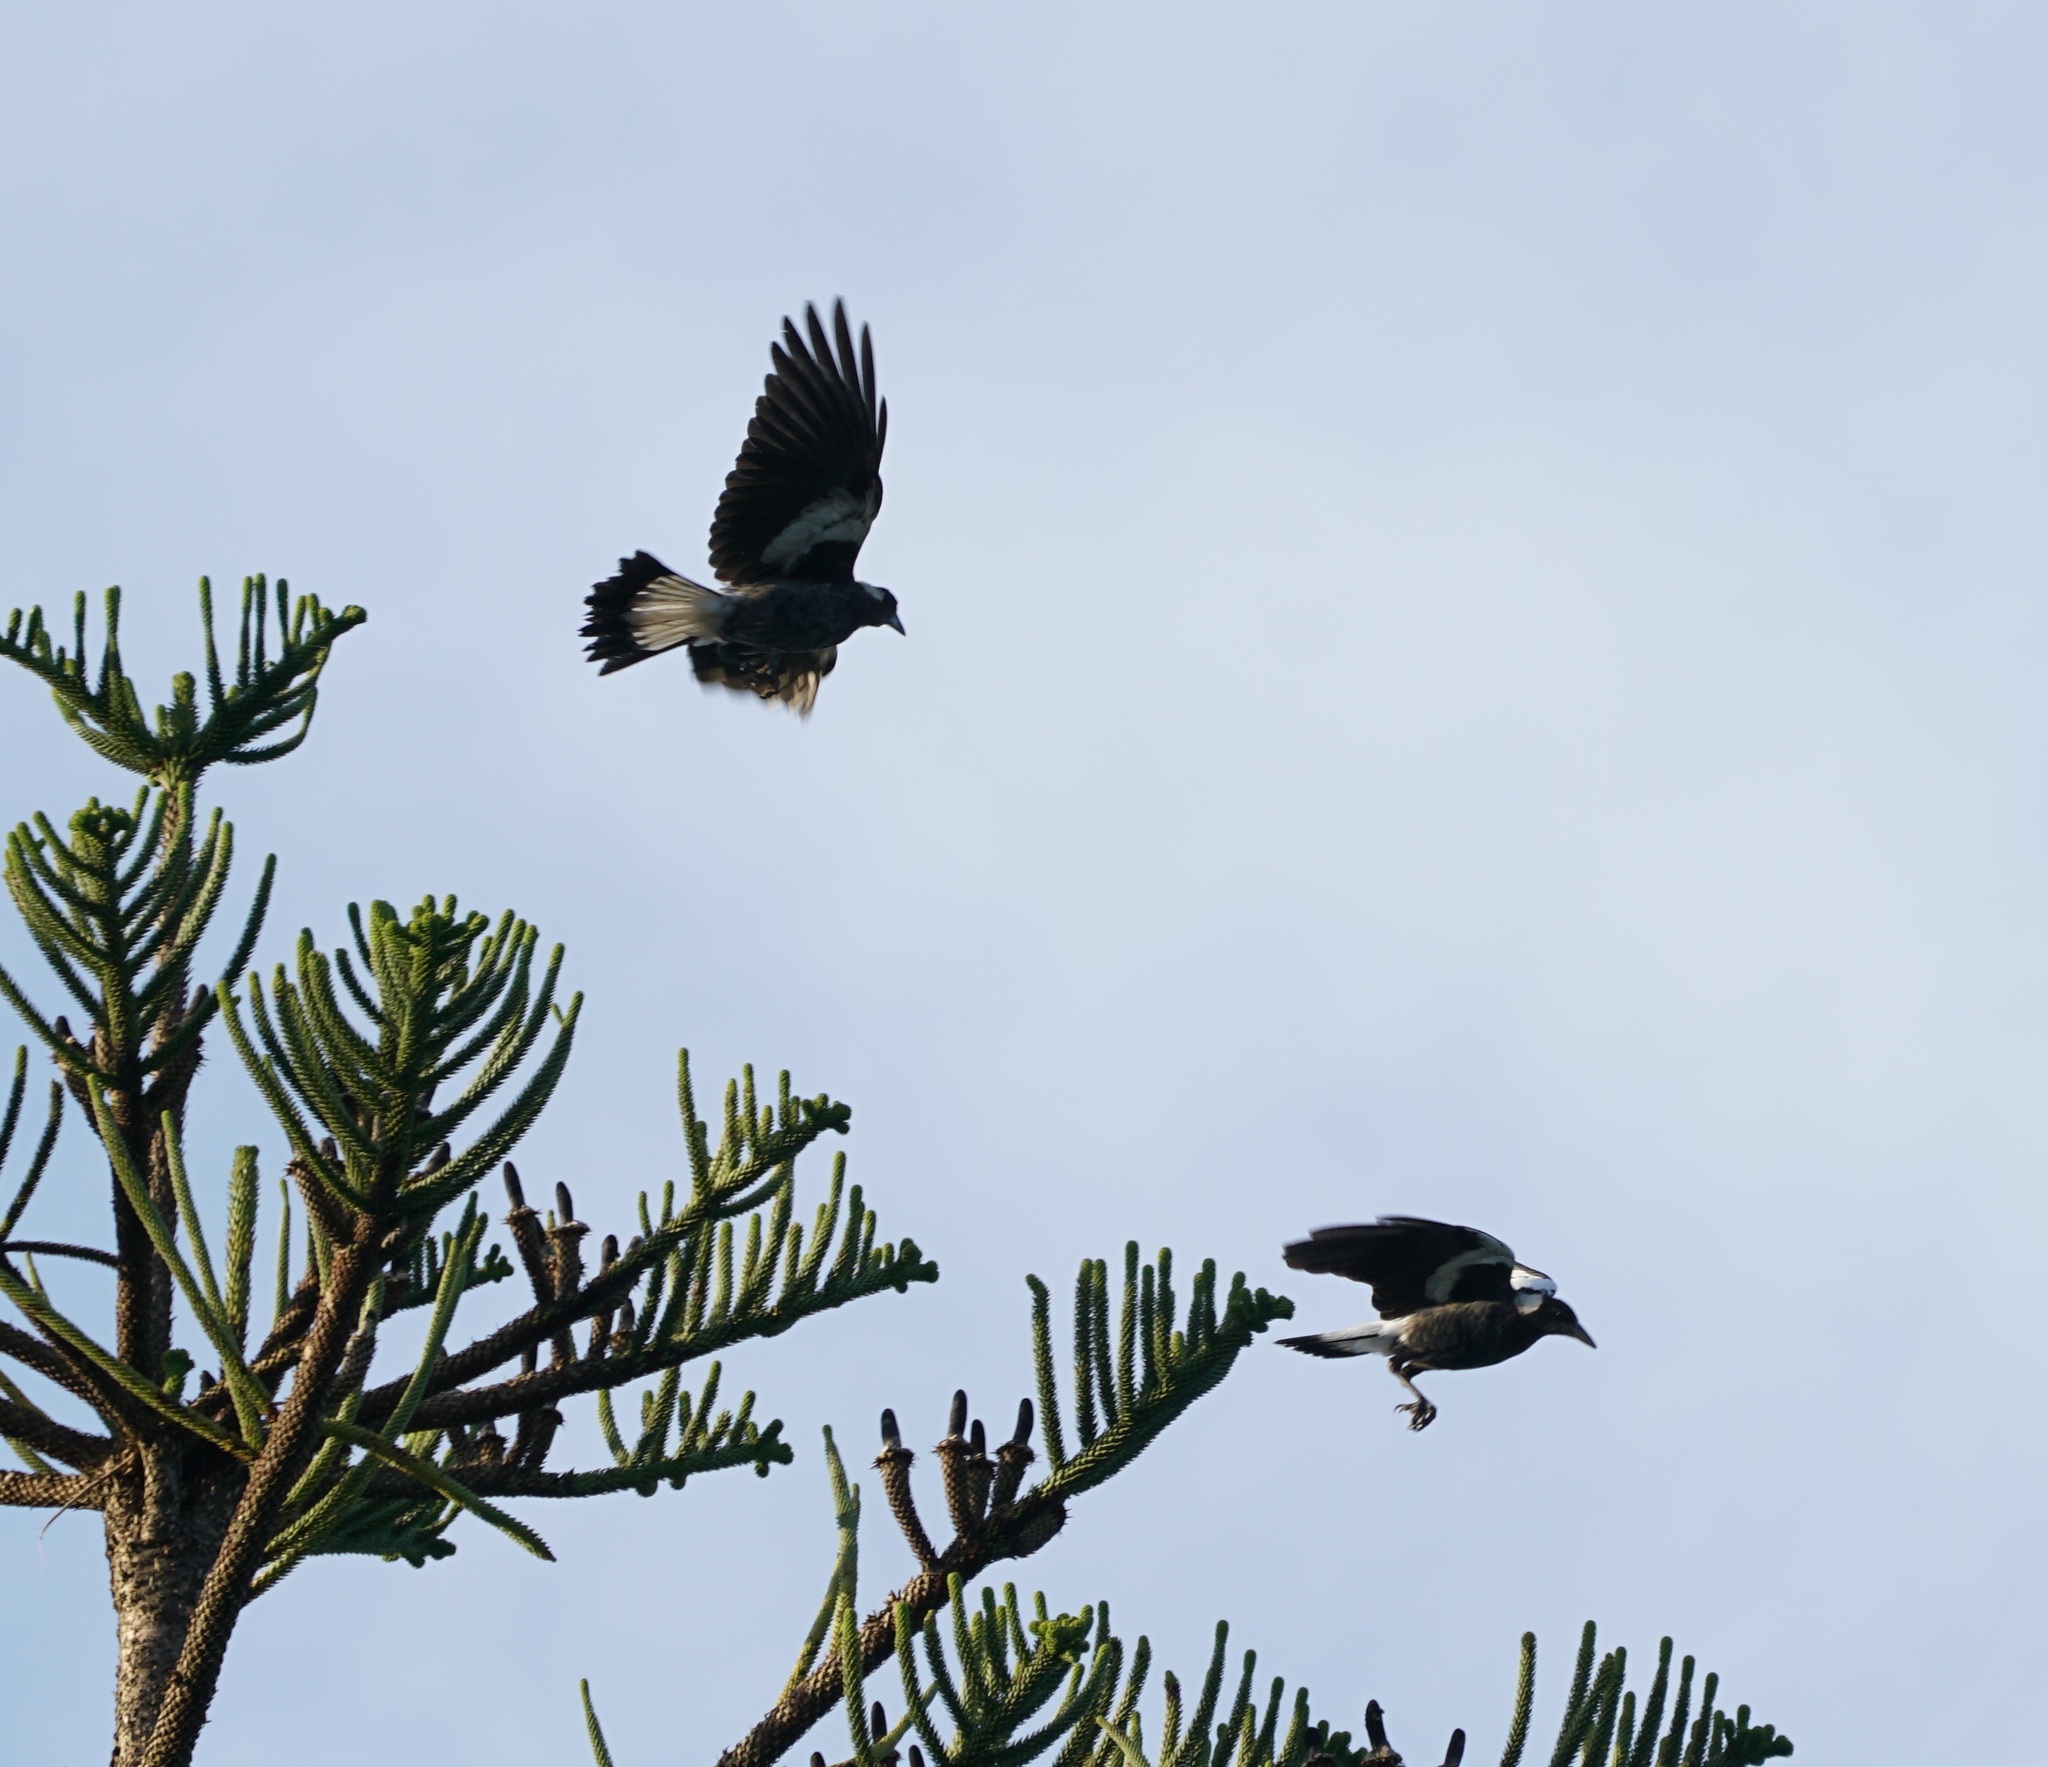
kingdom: Animalia
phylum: Chordata
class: Aves
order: Passeriformes
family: Cracticidae
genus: Gymnorhina
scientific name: Gymnorhina tibicen
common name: Australian magpie
